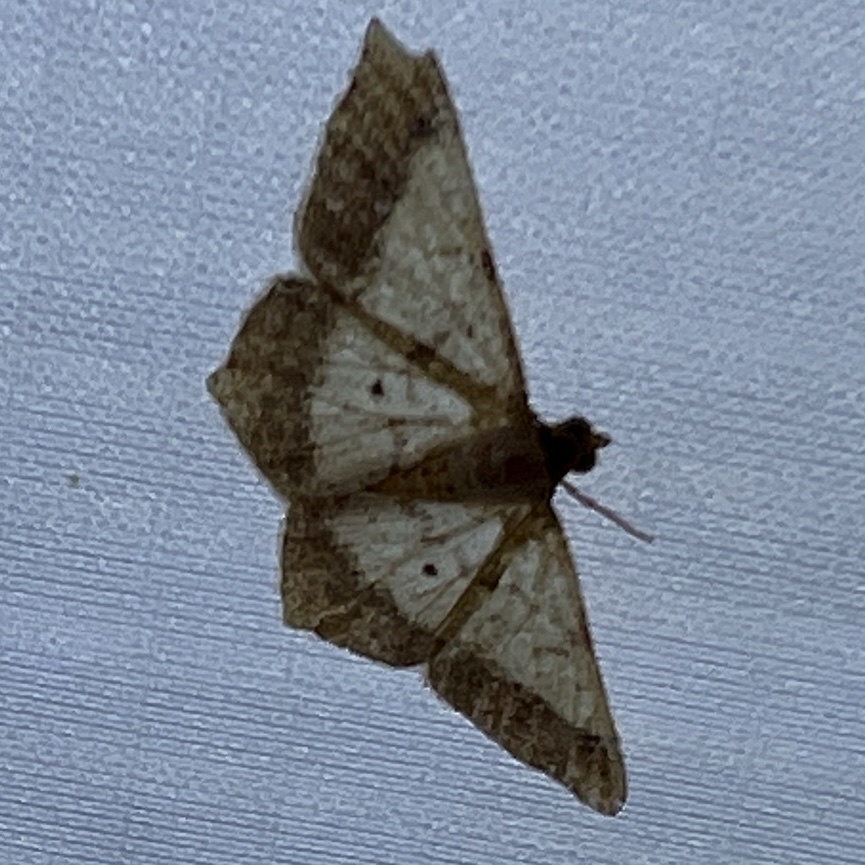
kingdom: Animalia
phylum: Arthropoda
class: Insecta
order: Lepidoptera
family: Geometridae
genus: Macaria
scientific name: Macaria abydata
